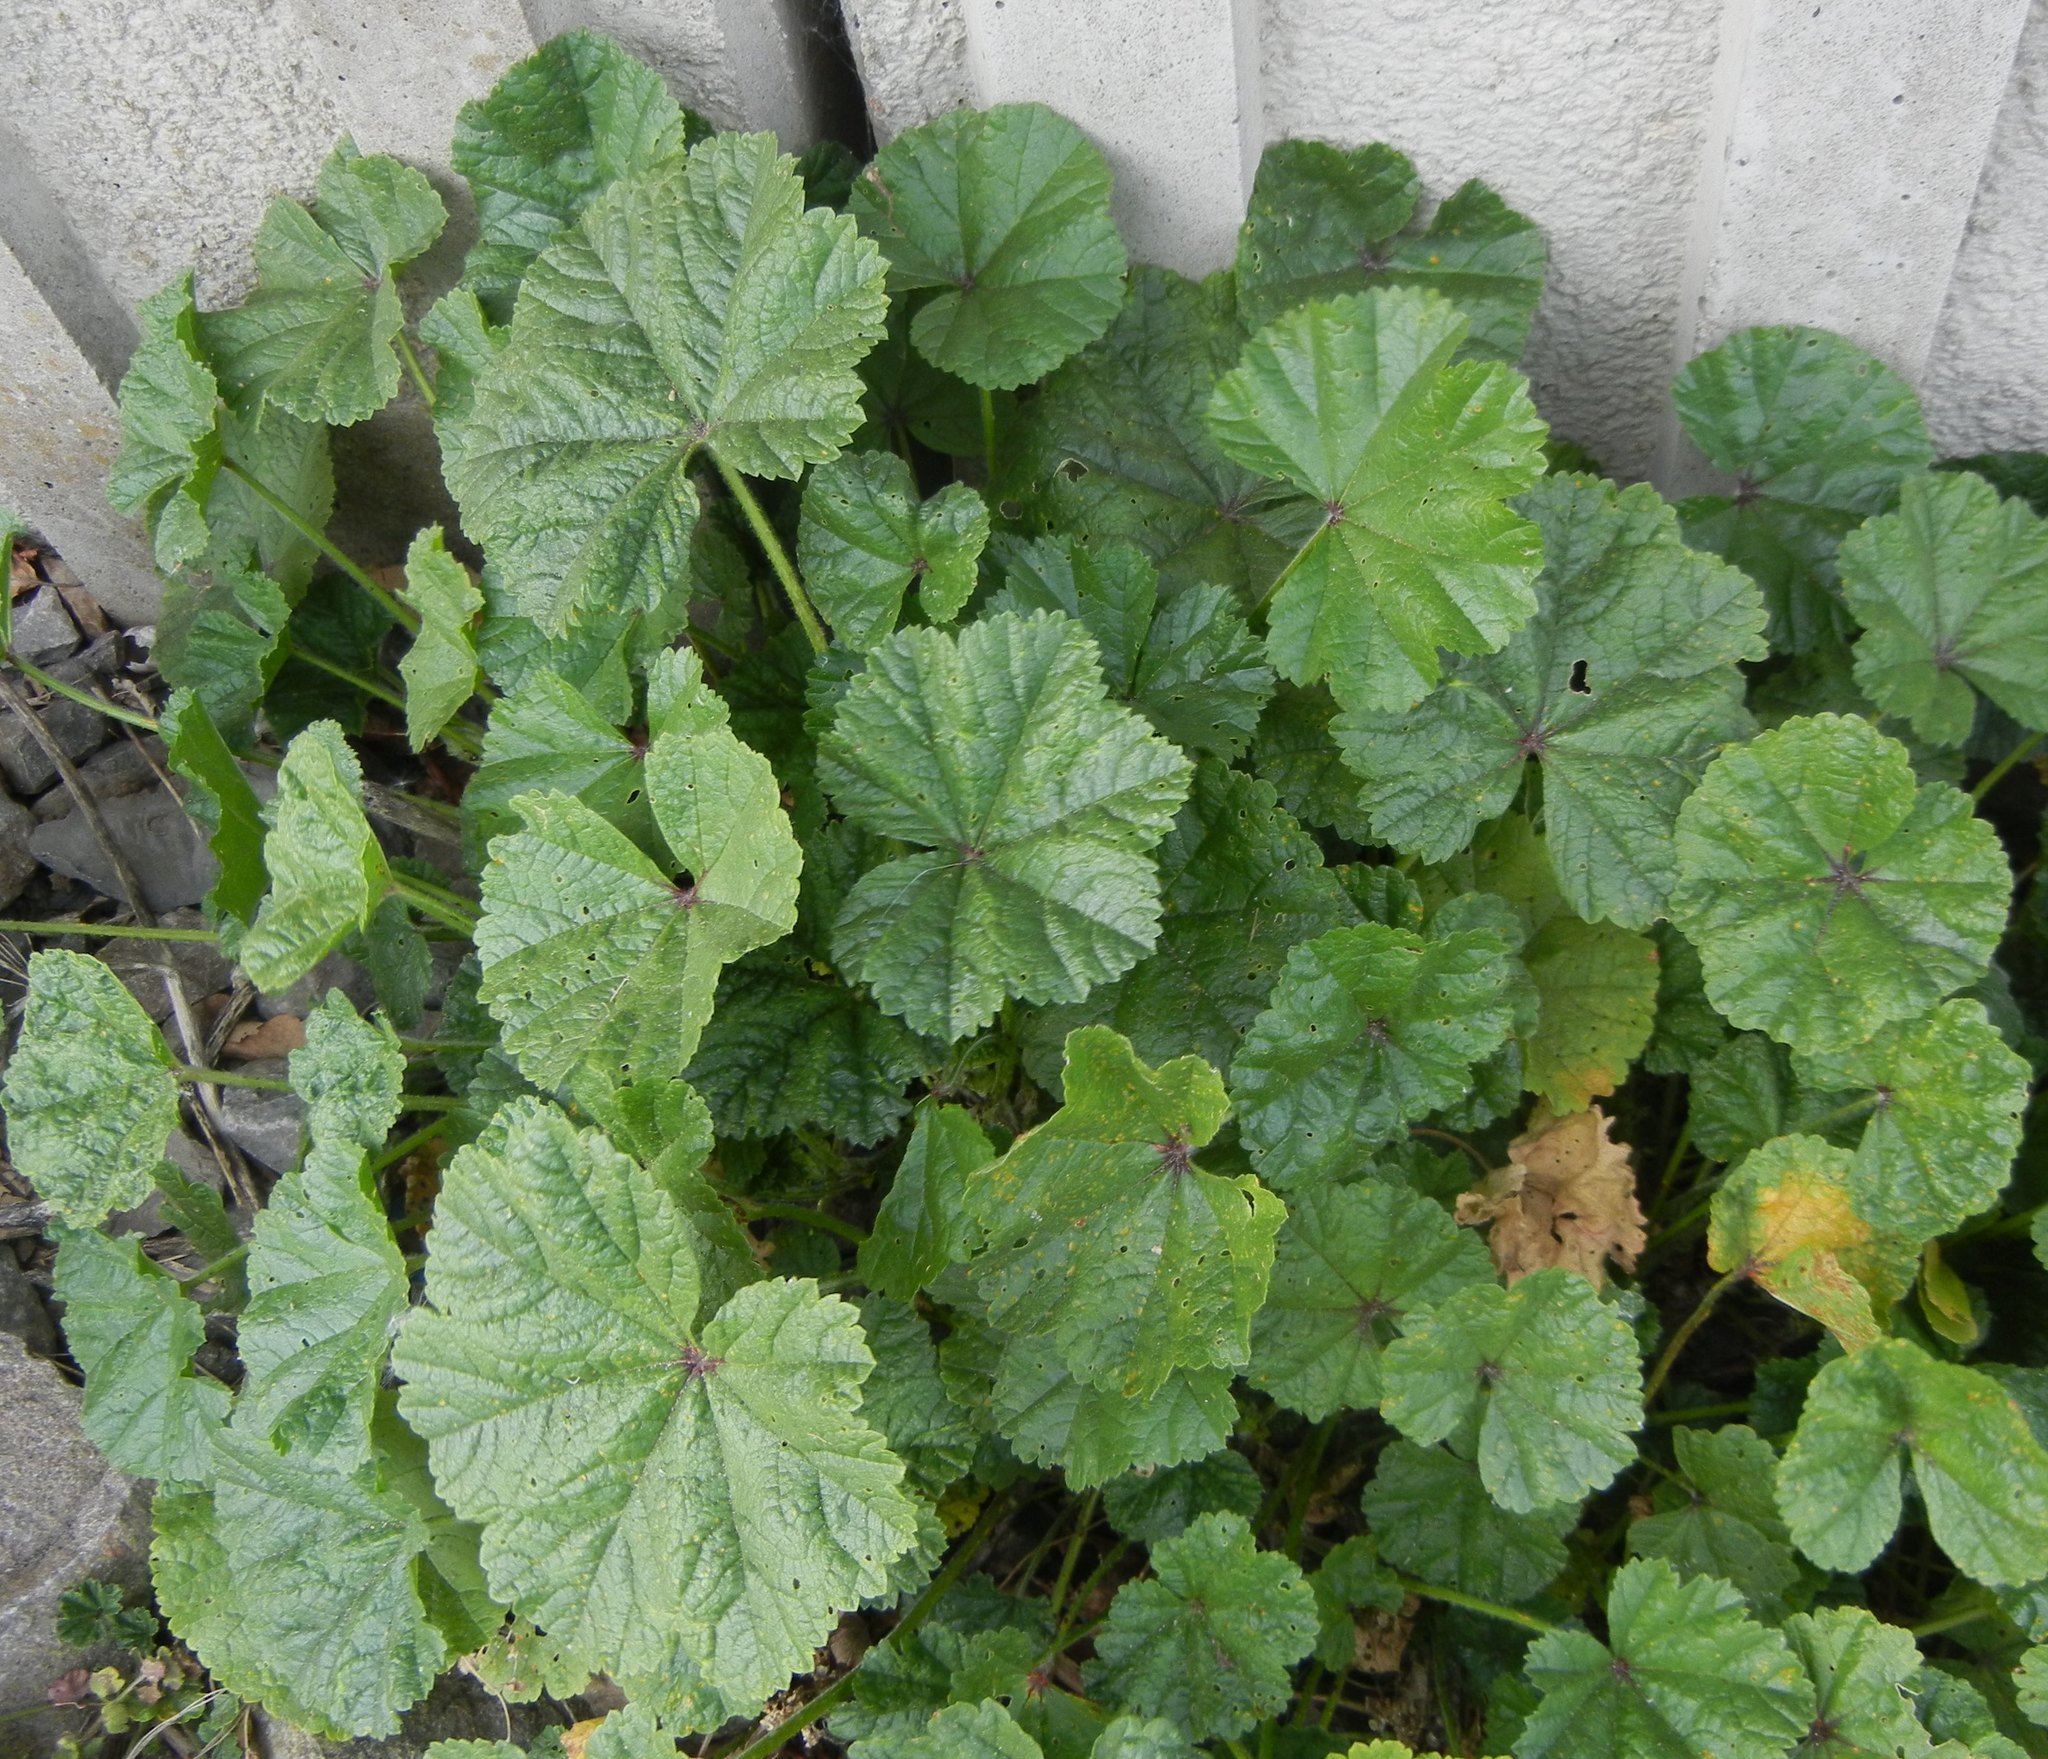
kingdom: Plantae
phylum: Tracheophyta
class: Magnoliopsida
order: Malvales
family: Malvaceae
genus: Malva
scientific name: Malva sylvestris
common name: Common mallow
